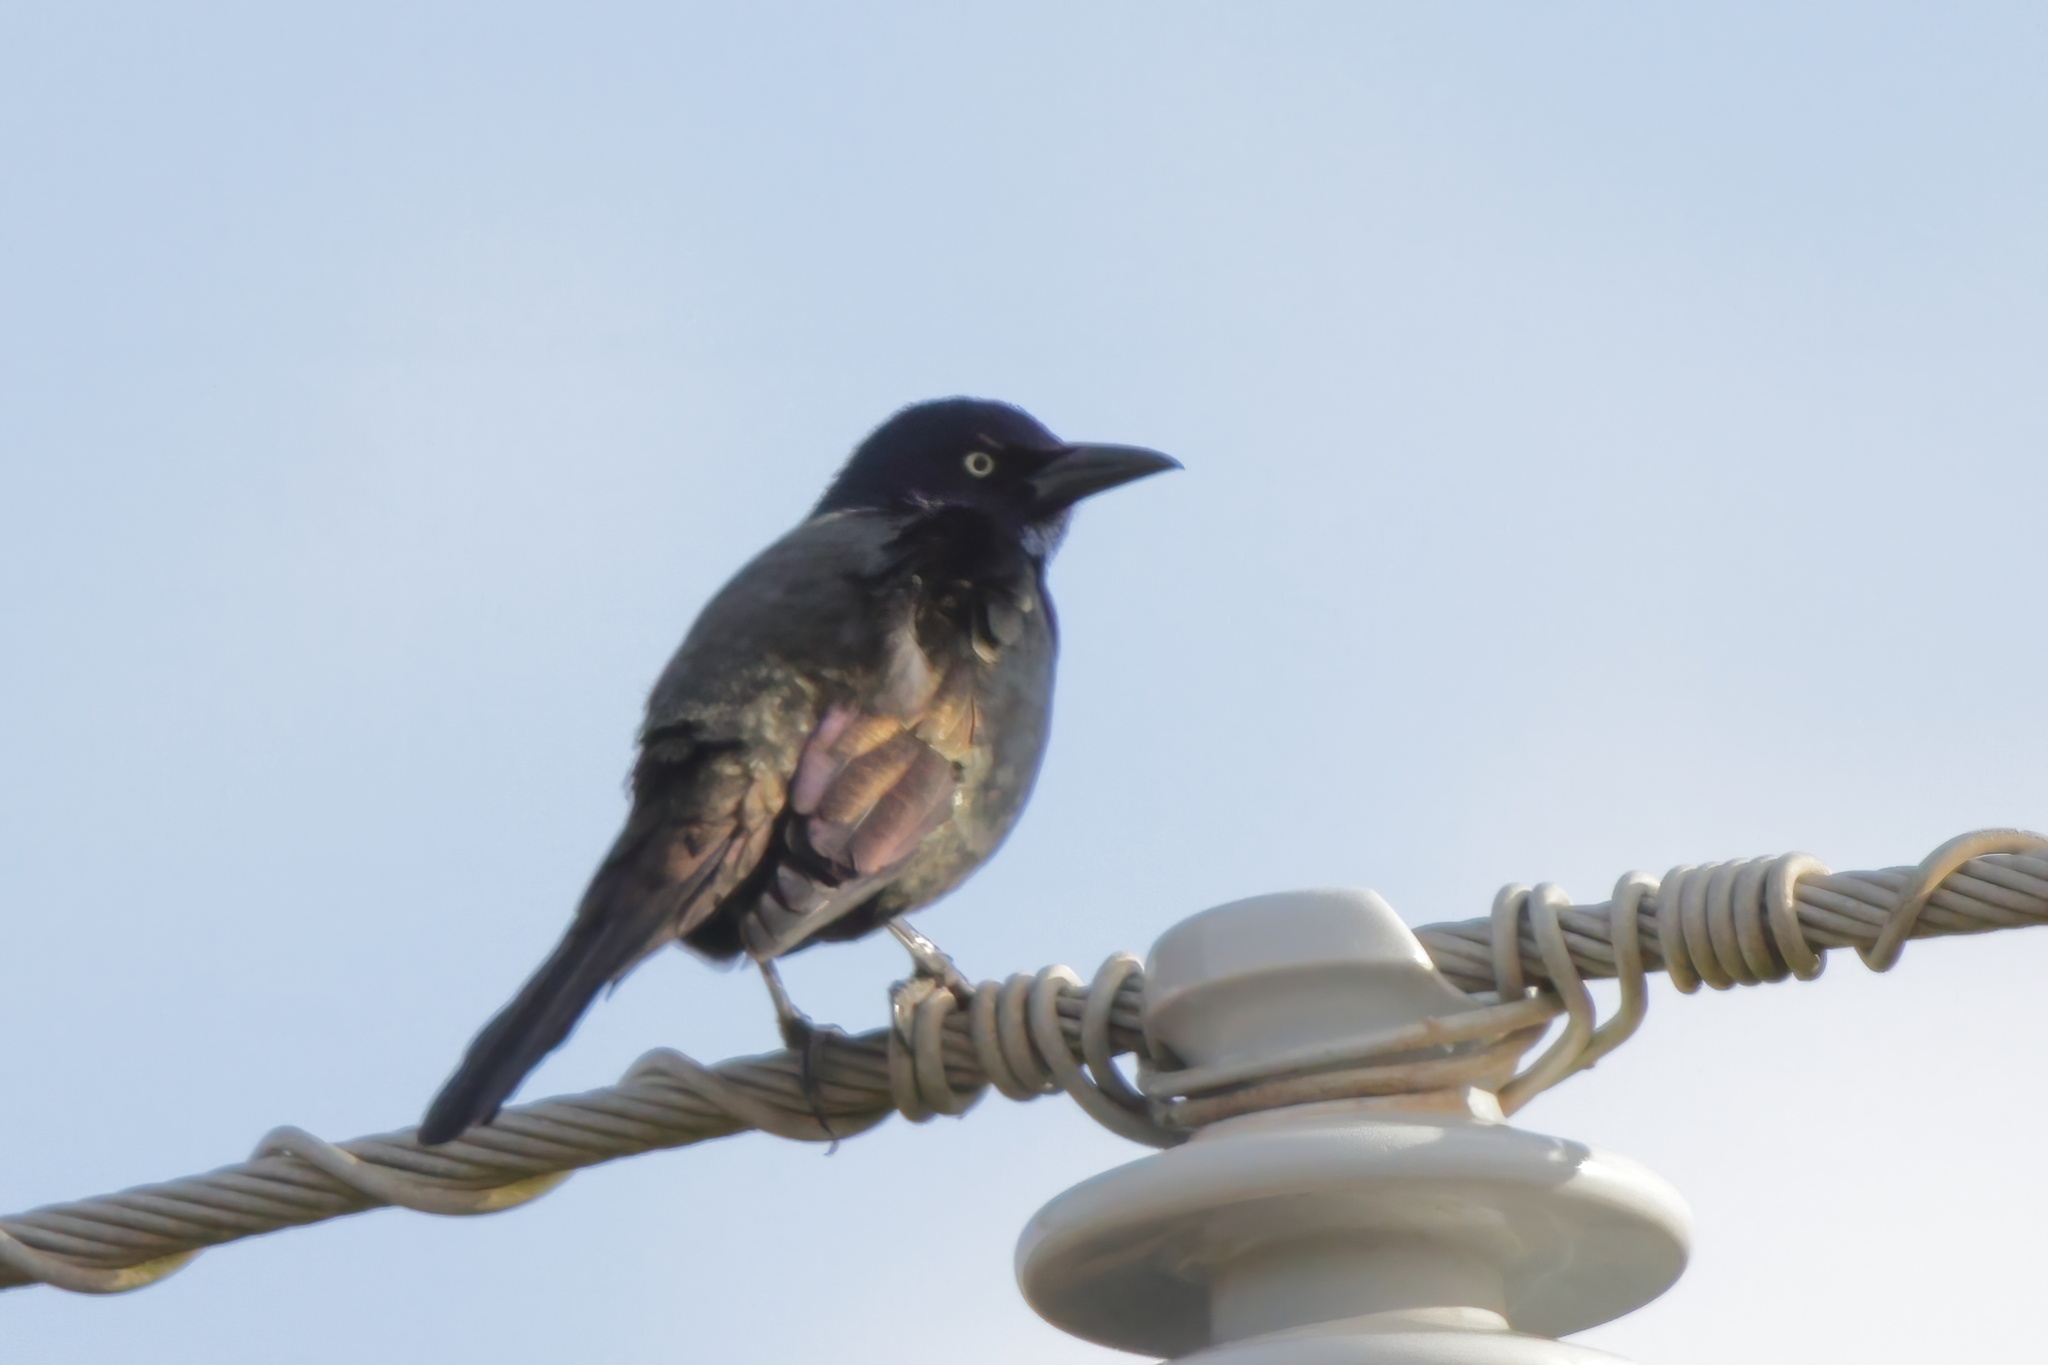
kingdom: Animalia
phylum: Chordata
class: Aves
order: Passeriformes
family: Icteridae
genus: Quiscalus
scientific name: Quiscalus quiscula
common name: Common grackle
